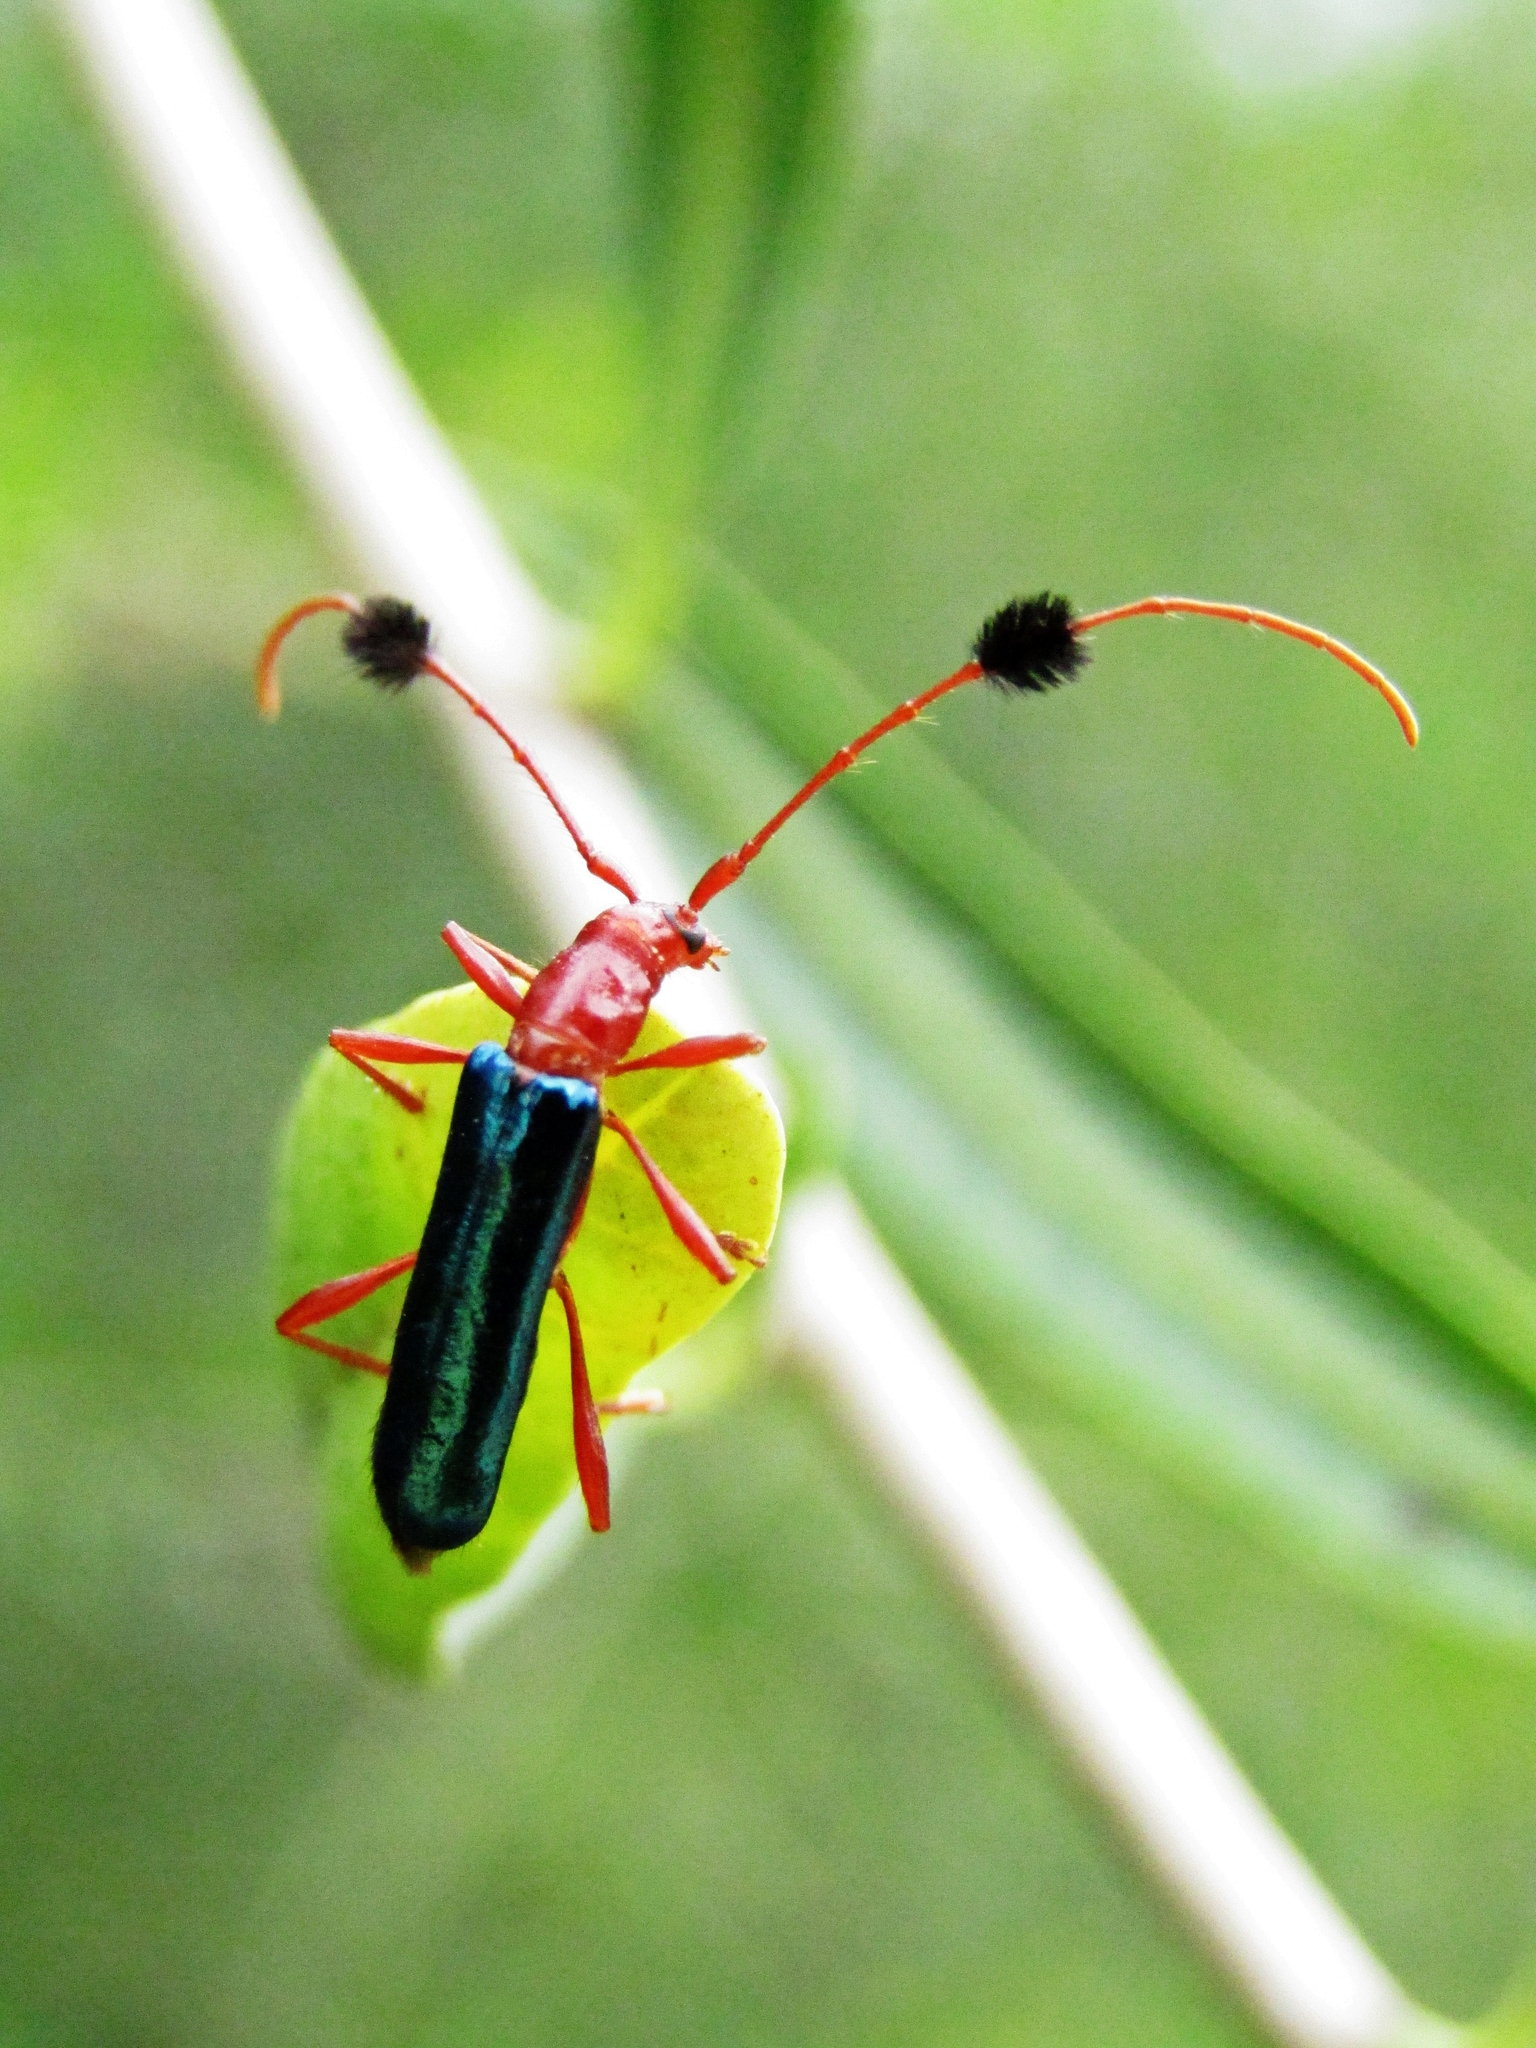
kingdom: Animalia
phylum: Arthropoda
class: Insecta
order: Coleoptera
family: Cerambycidae
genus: Paromoeocerus
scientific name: Paromoeocerus barbicornis
